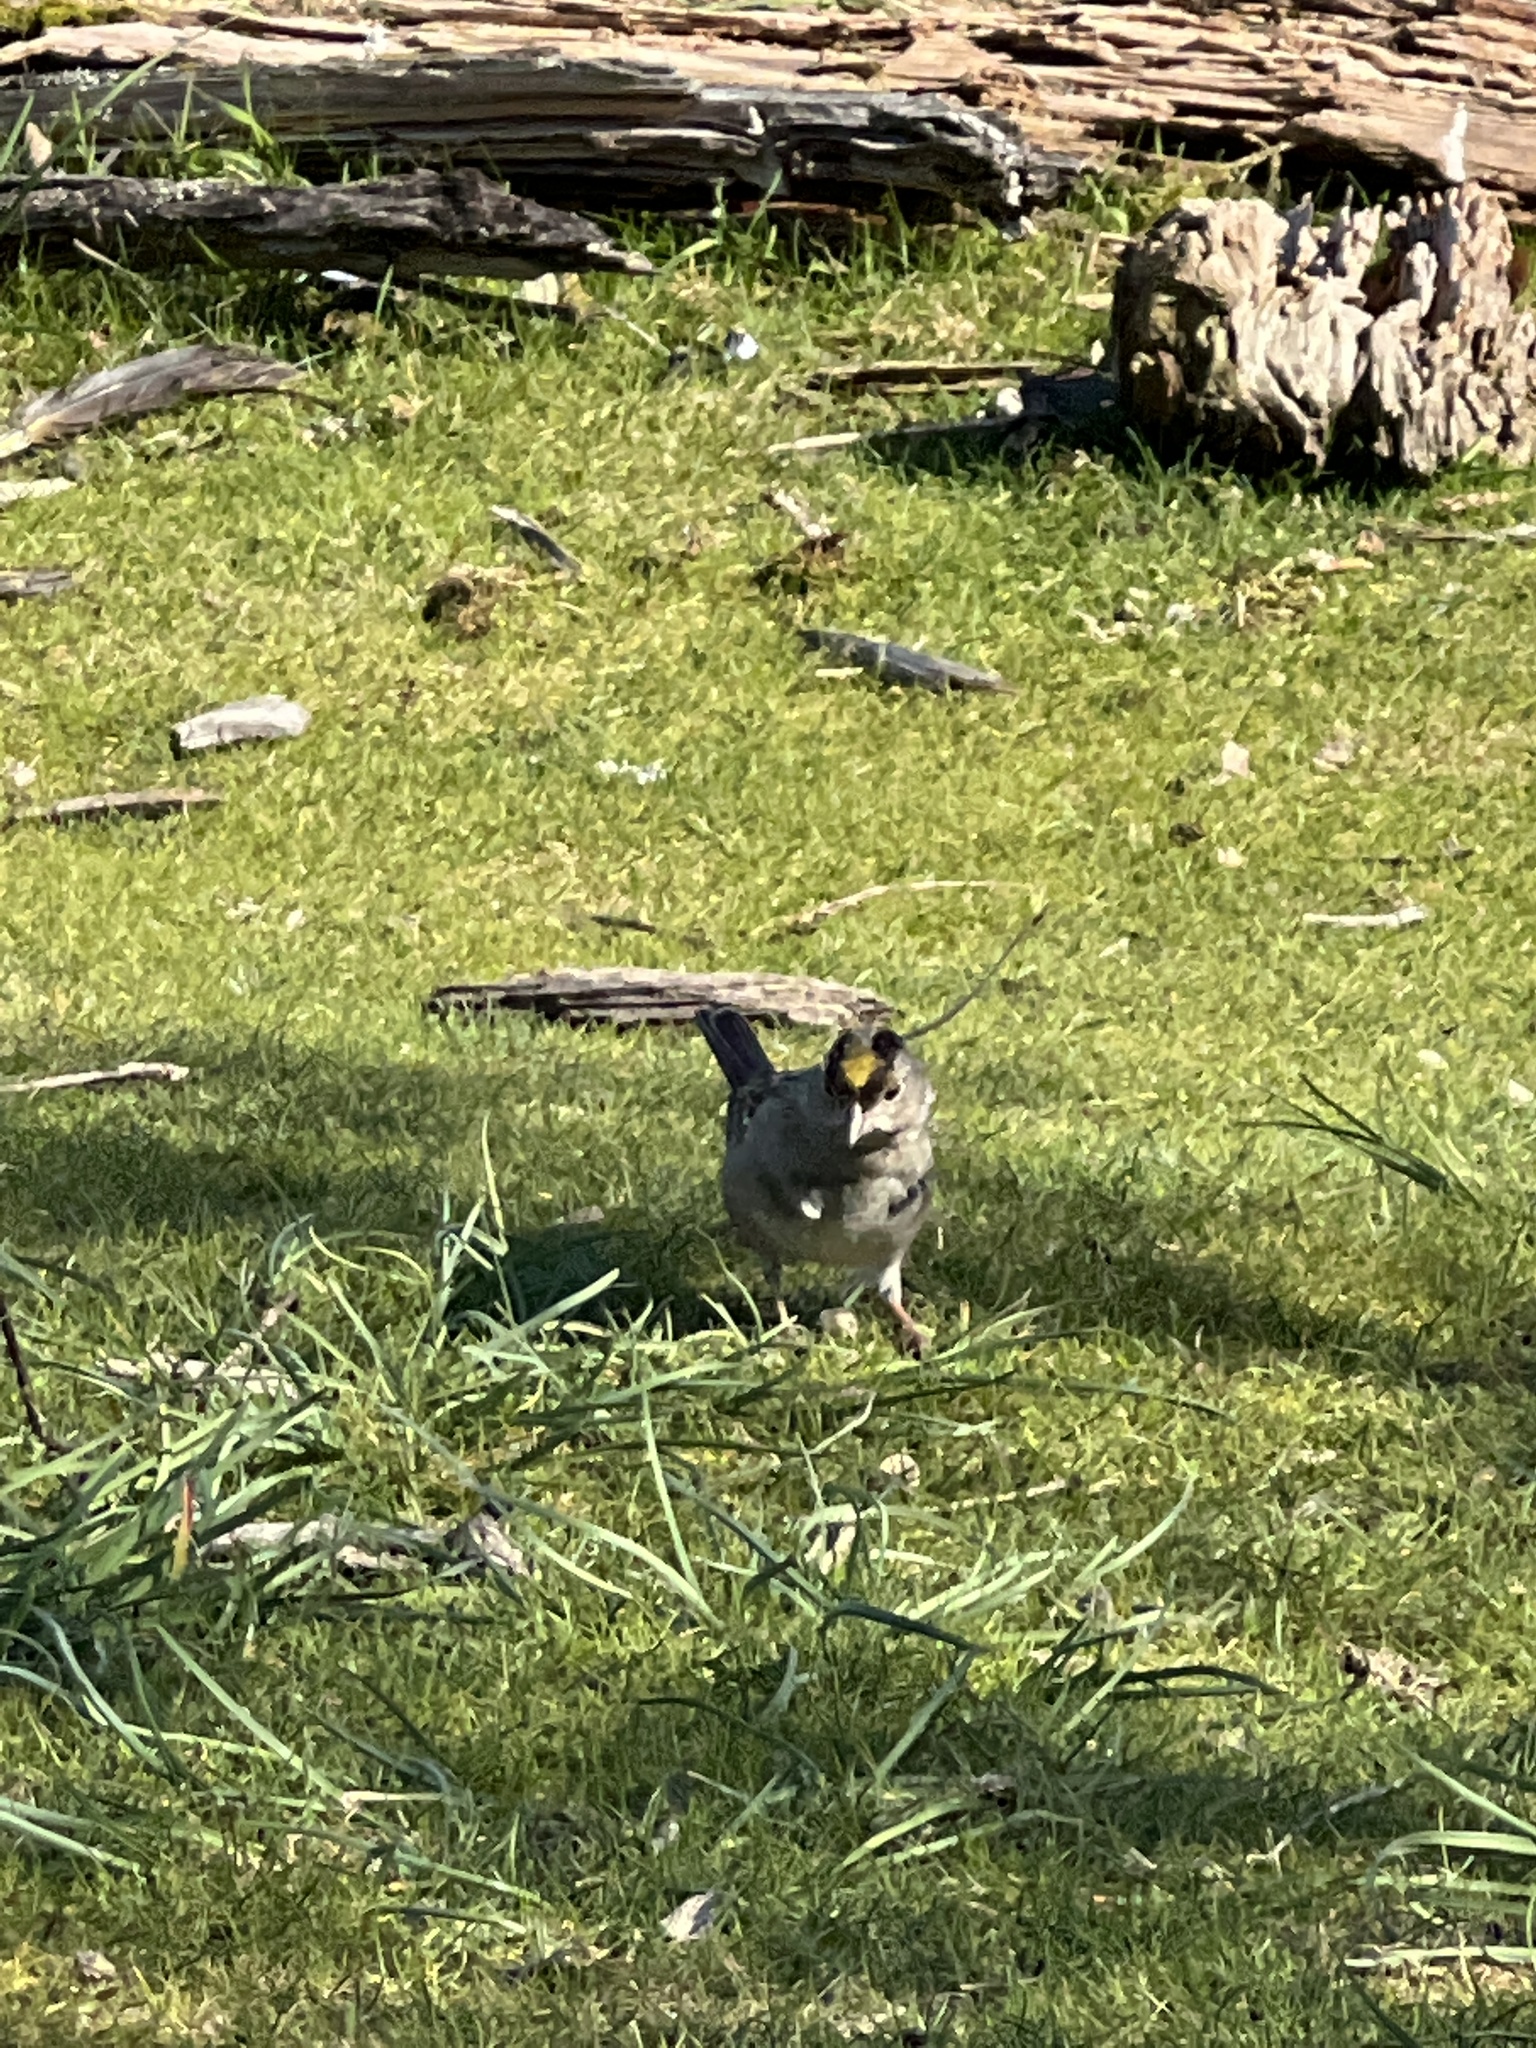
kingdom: Animalia
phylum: Chordata
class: Aves
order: Passeriformes
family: Passerellidae
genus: Zonotrichia
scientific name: Zonotrichia atricapilla
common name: Golden-crowned sparrow
